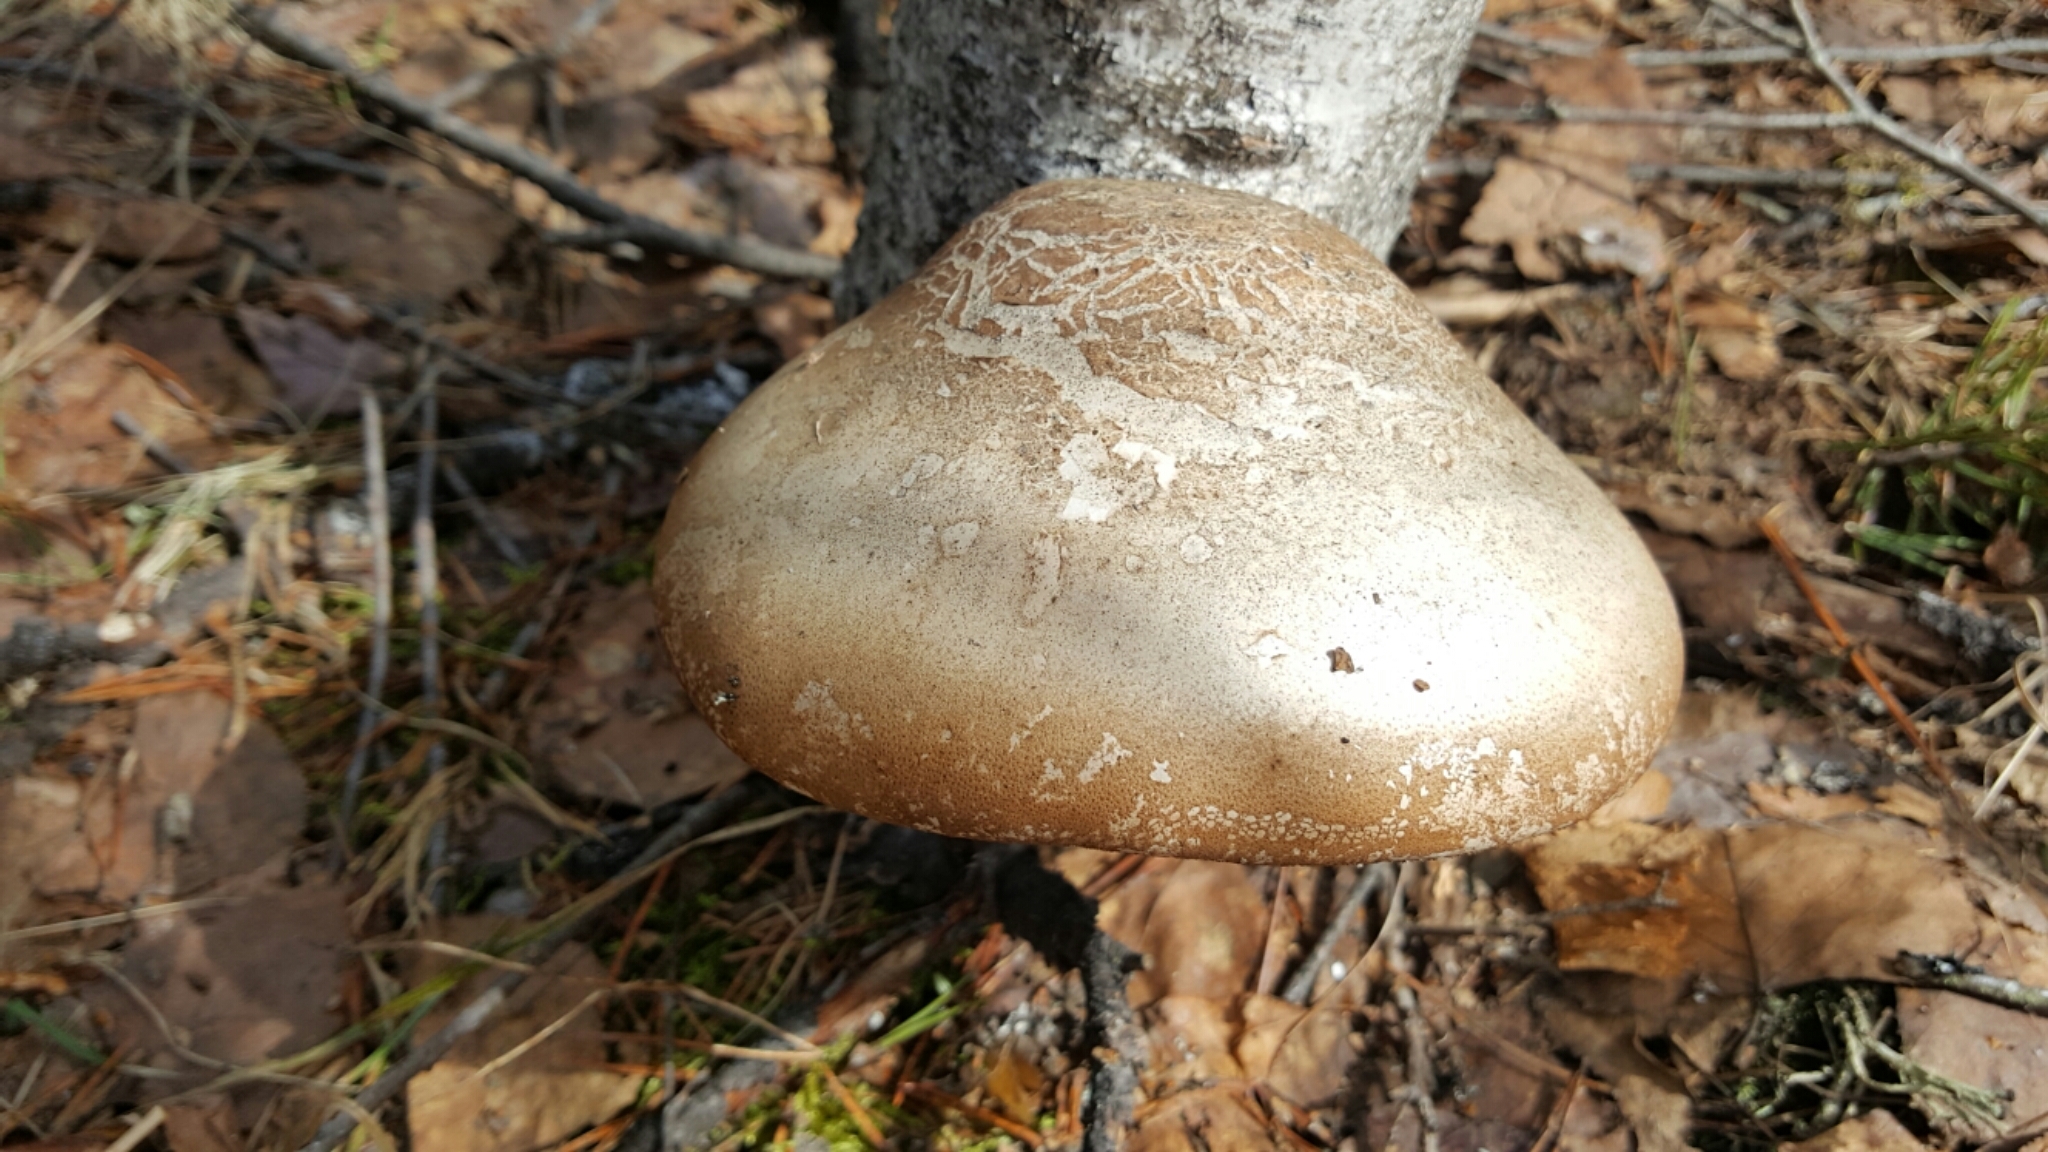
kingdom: Fungi
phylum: Basidiomycota
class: Agaricomycetes
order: Polyporales
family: Fomitopsidaceae
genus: Fomitopsis
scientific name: Fomitopsis betulina
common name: Birch polypore
